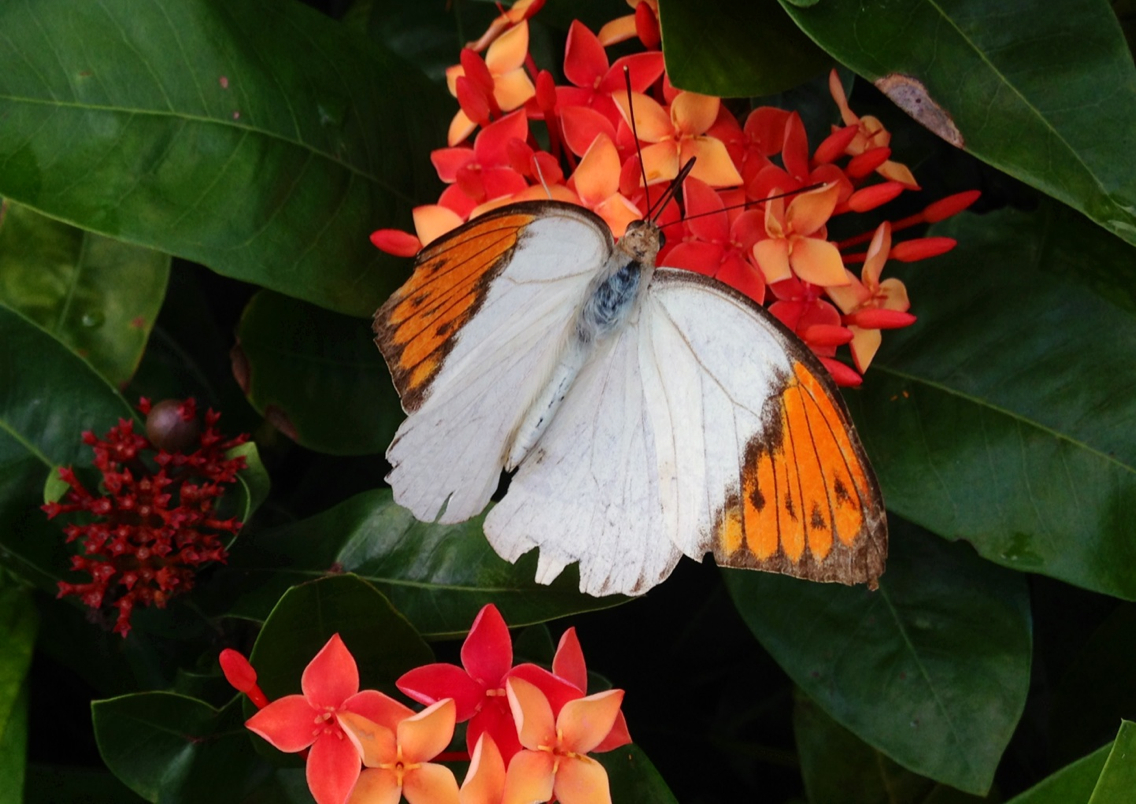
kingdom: Animalia
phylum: Arthropoda
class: Insecta
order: Lepidoptera
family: Pieridae
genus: Hebomoia
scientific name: Hebomoia glaucippe
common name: Great orange tip
